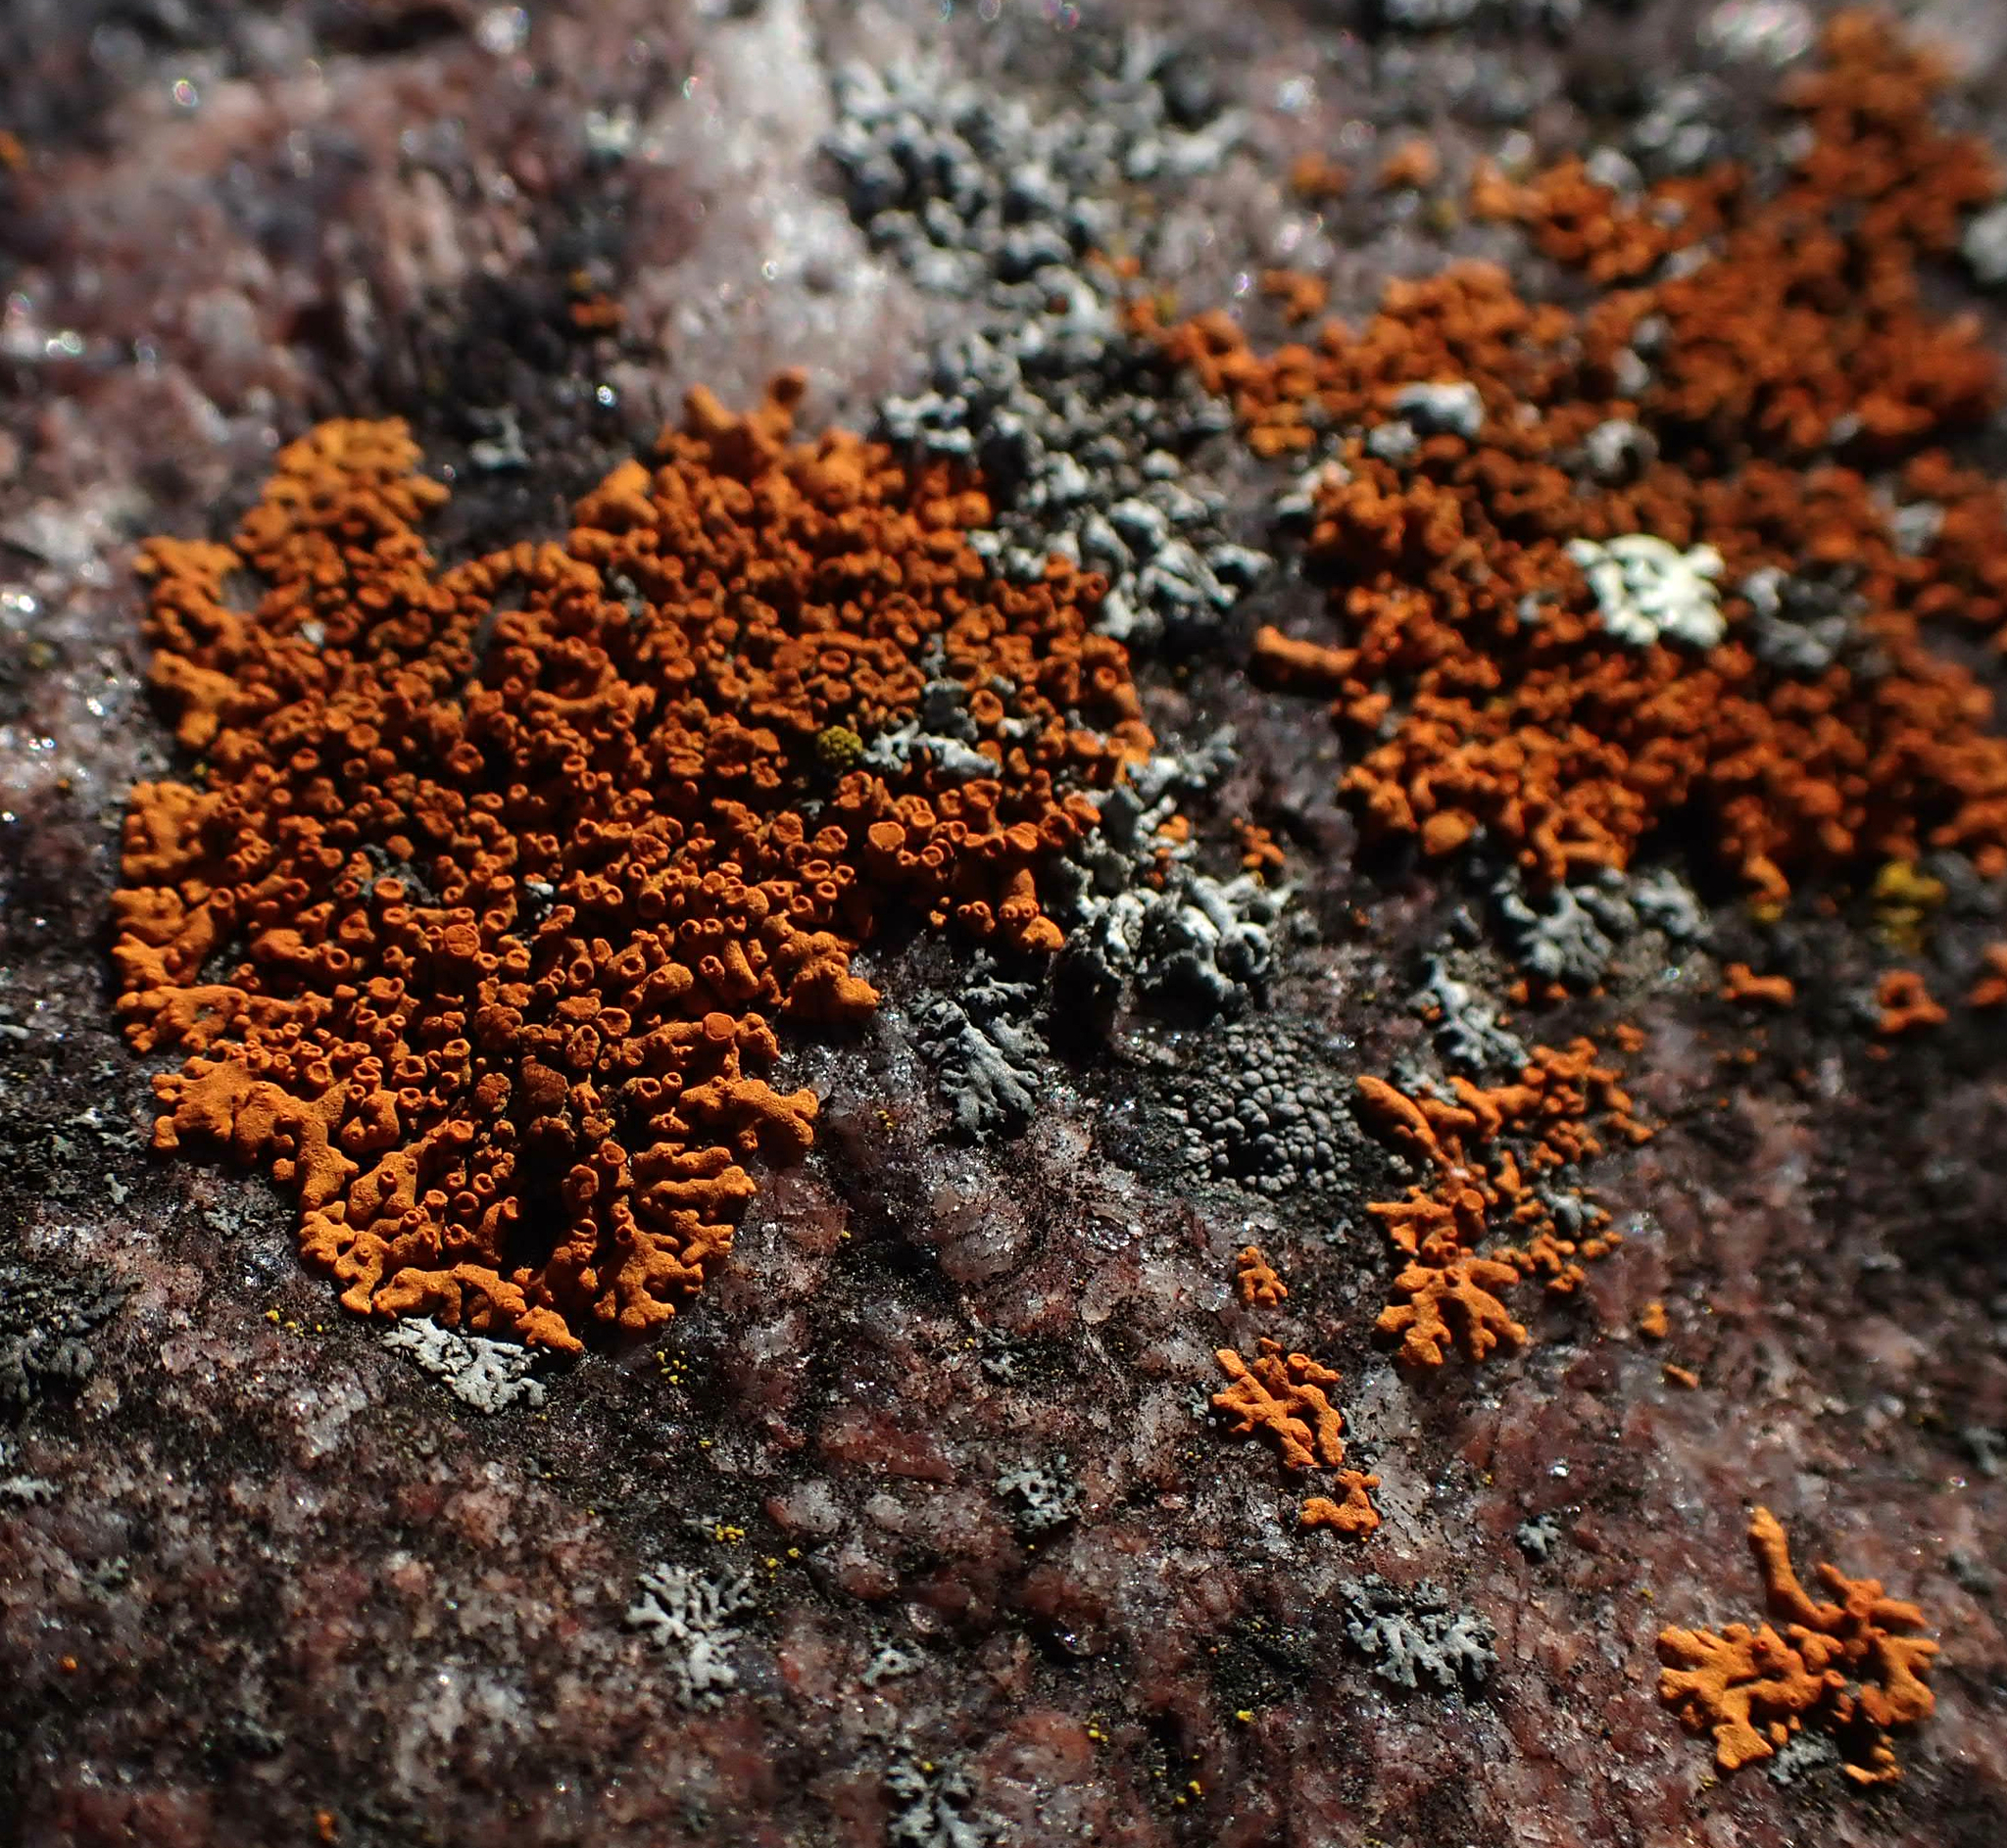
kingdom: Fungi
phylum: Ascomycota
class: Lecanoromycetes
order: Teloschistales
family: Teloschistaceae
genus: Xanthoria
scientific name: Xanthoria elegans
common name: Elegant sunburst lichen
